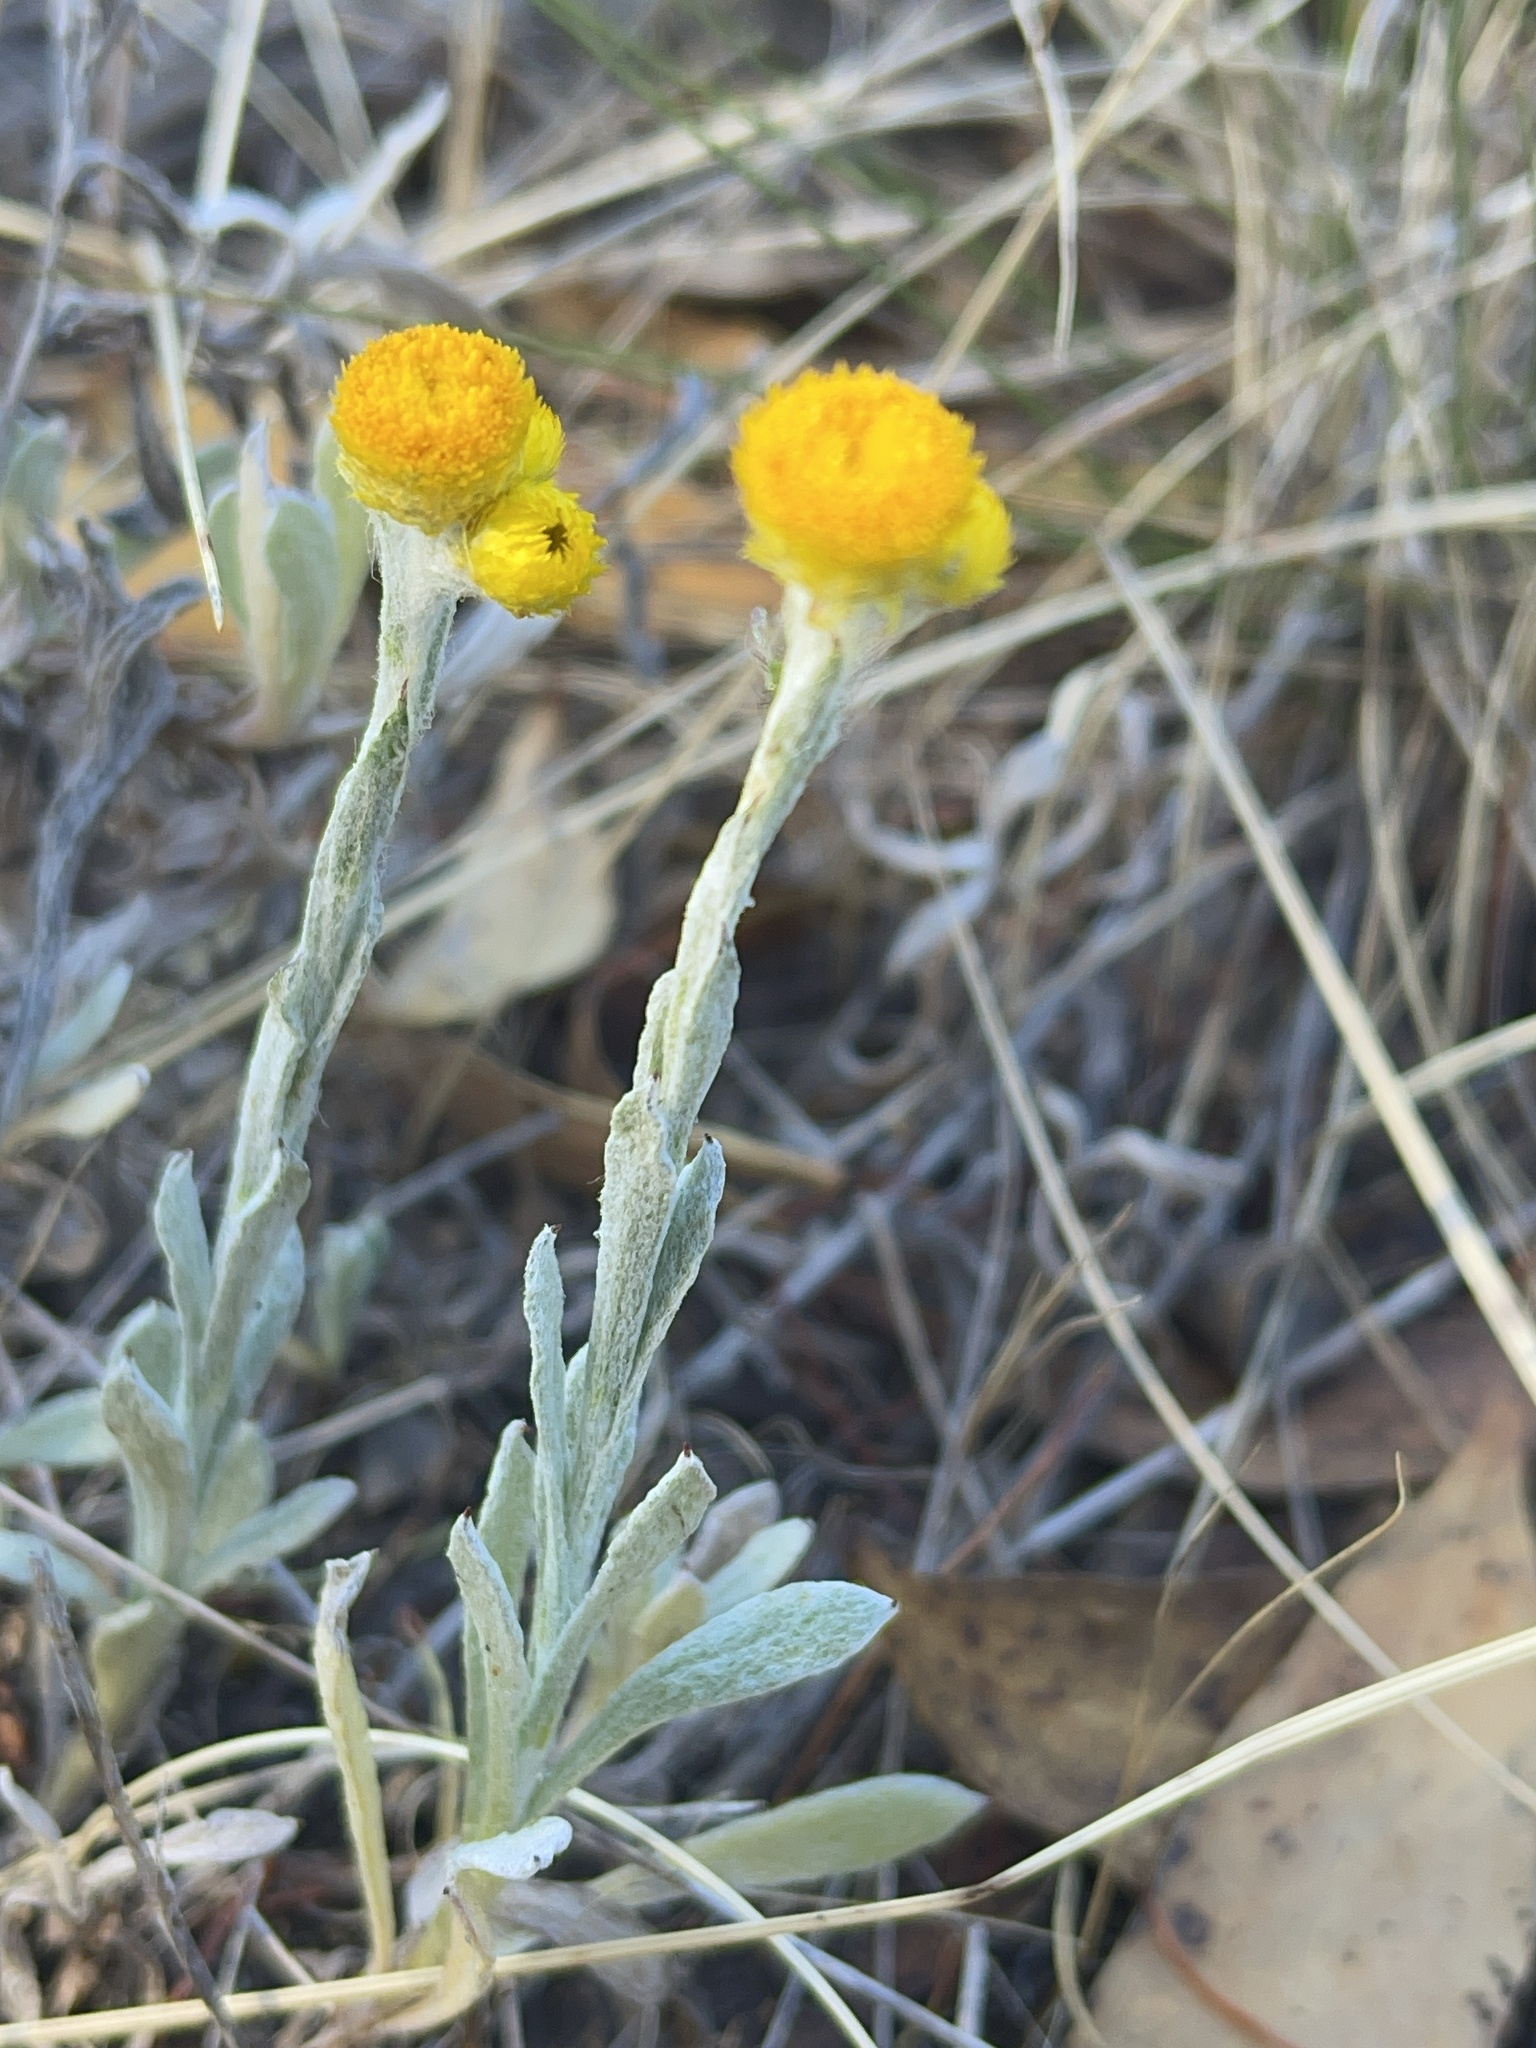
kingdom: Plantae
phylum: Tracheophyta
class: Magnoliopsida
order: Asterales
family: Asteraceae
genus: Chrysocephalum
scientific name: Chrysocephalum apiculatum
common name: Common everlasting
